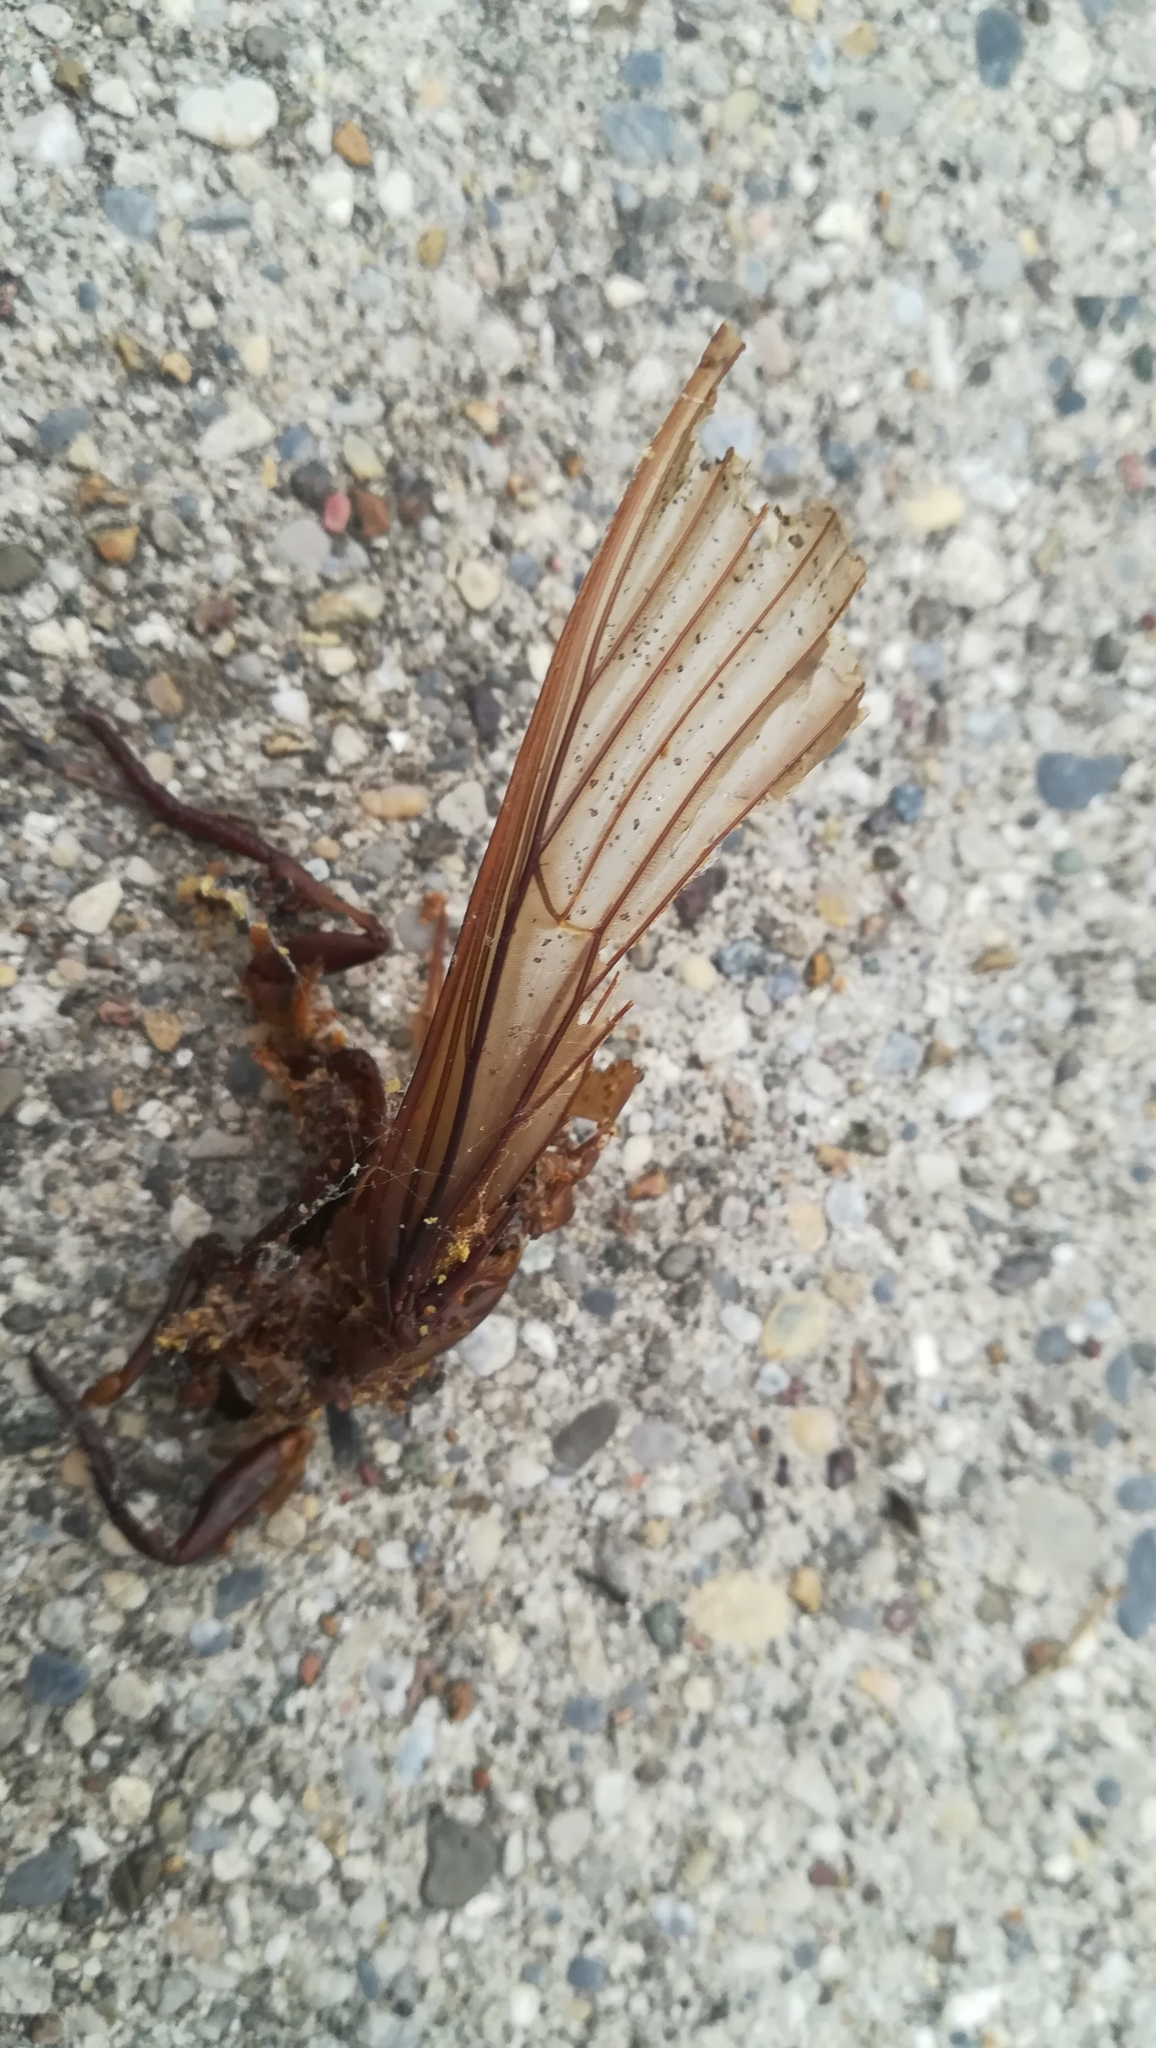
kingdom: Animalia
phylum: Arthropoda
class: Insecta
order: Lepidoptera
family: Sphingidae
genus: Acherontia
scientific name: Acherontia atropos
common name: Death's-head hawk moth
